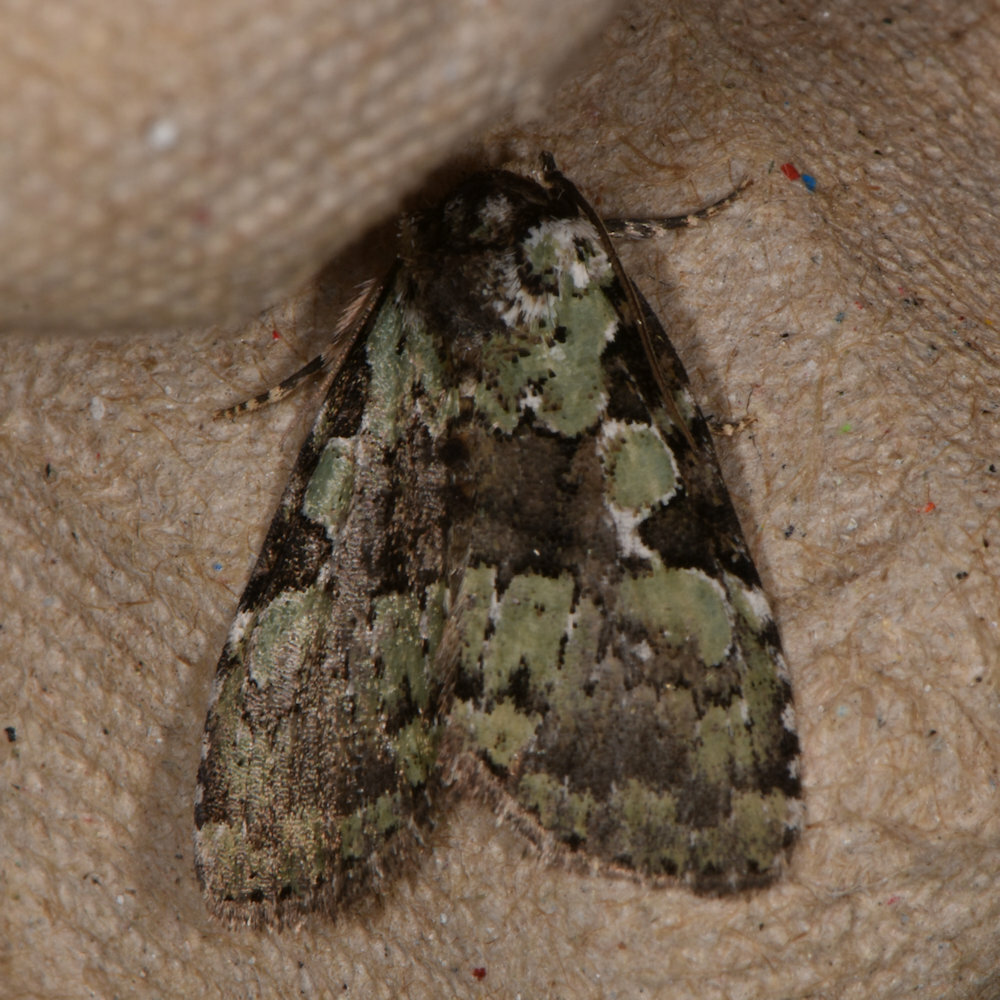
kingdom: Animalia
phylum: Arthropoda
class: Insecta
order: Lepidoptera
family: Noctuidae
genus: Leuconycta
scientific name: Leuconycta lepidula
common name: Marbled-green leuconycta moth
